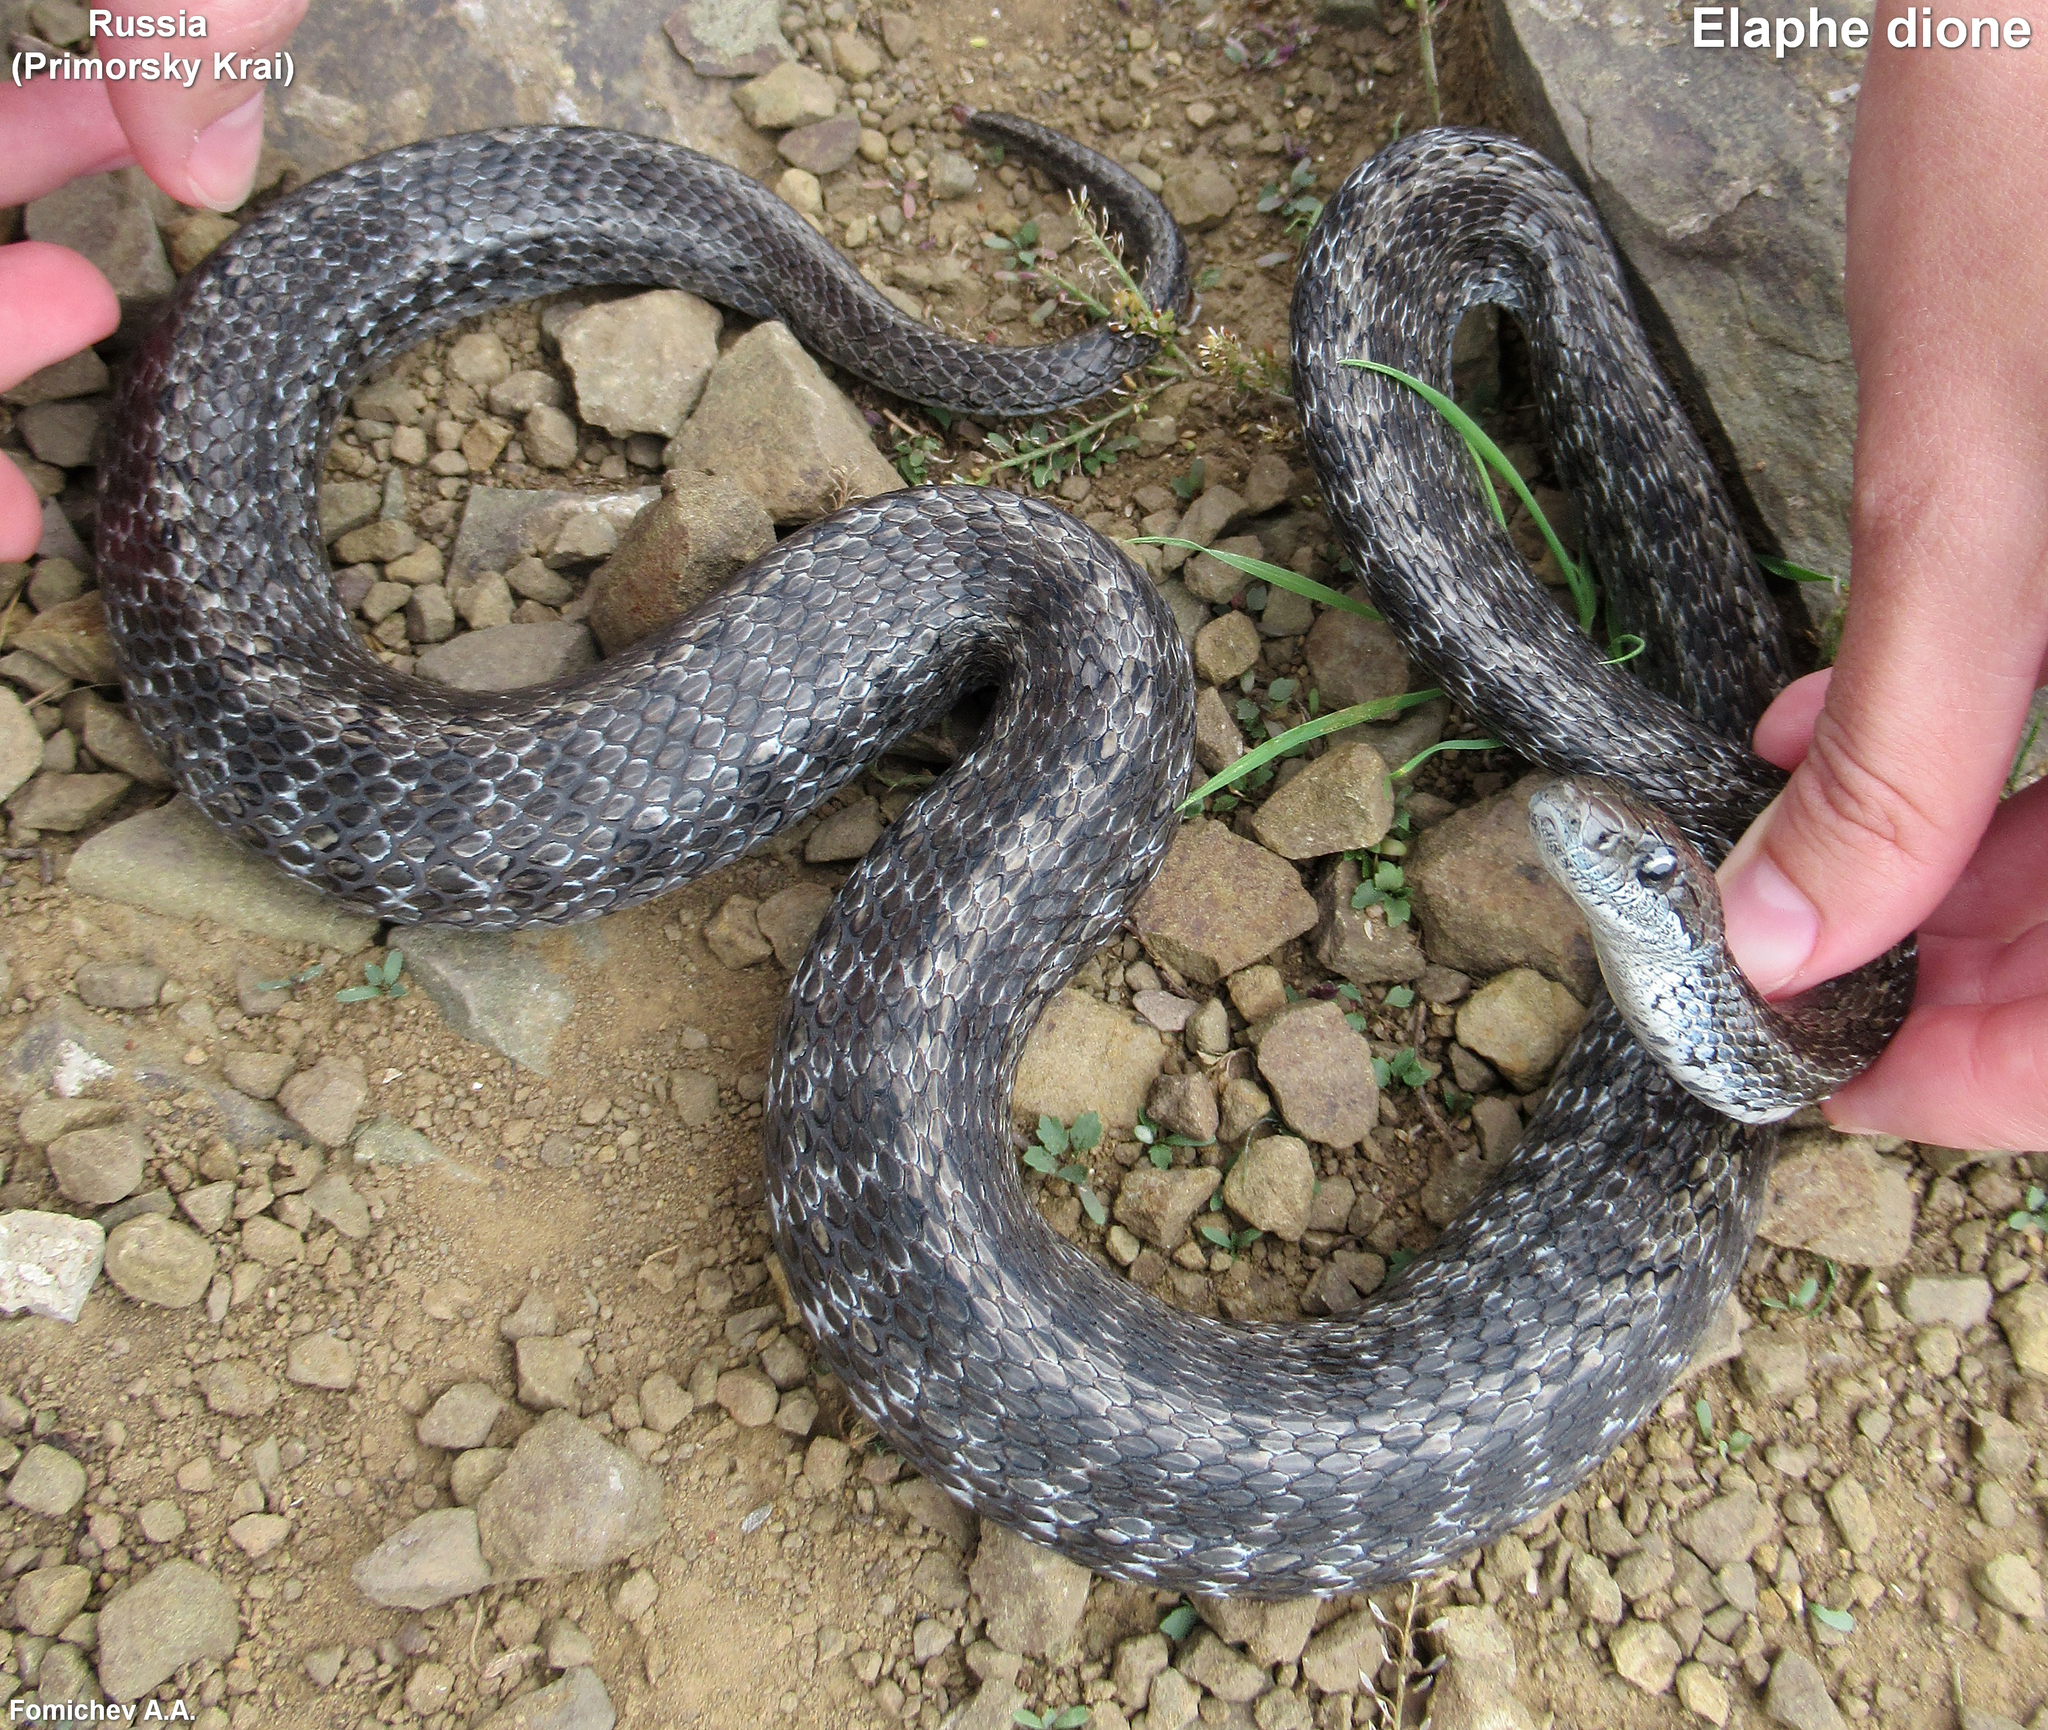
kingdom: Animalia
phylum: Chordata
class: Squamata
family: Colubridae
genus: Elaphe
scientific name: Elaphe dione
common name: Dione ratsnake
